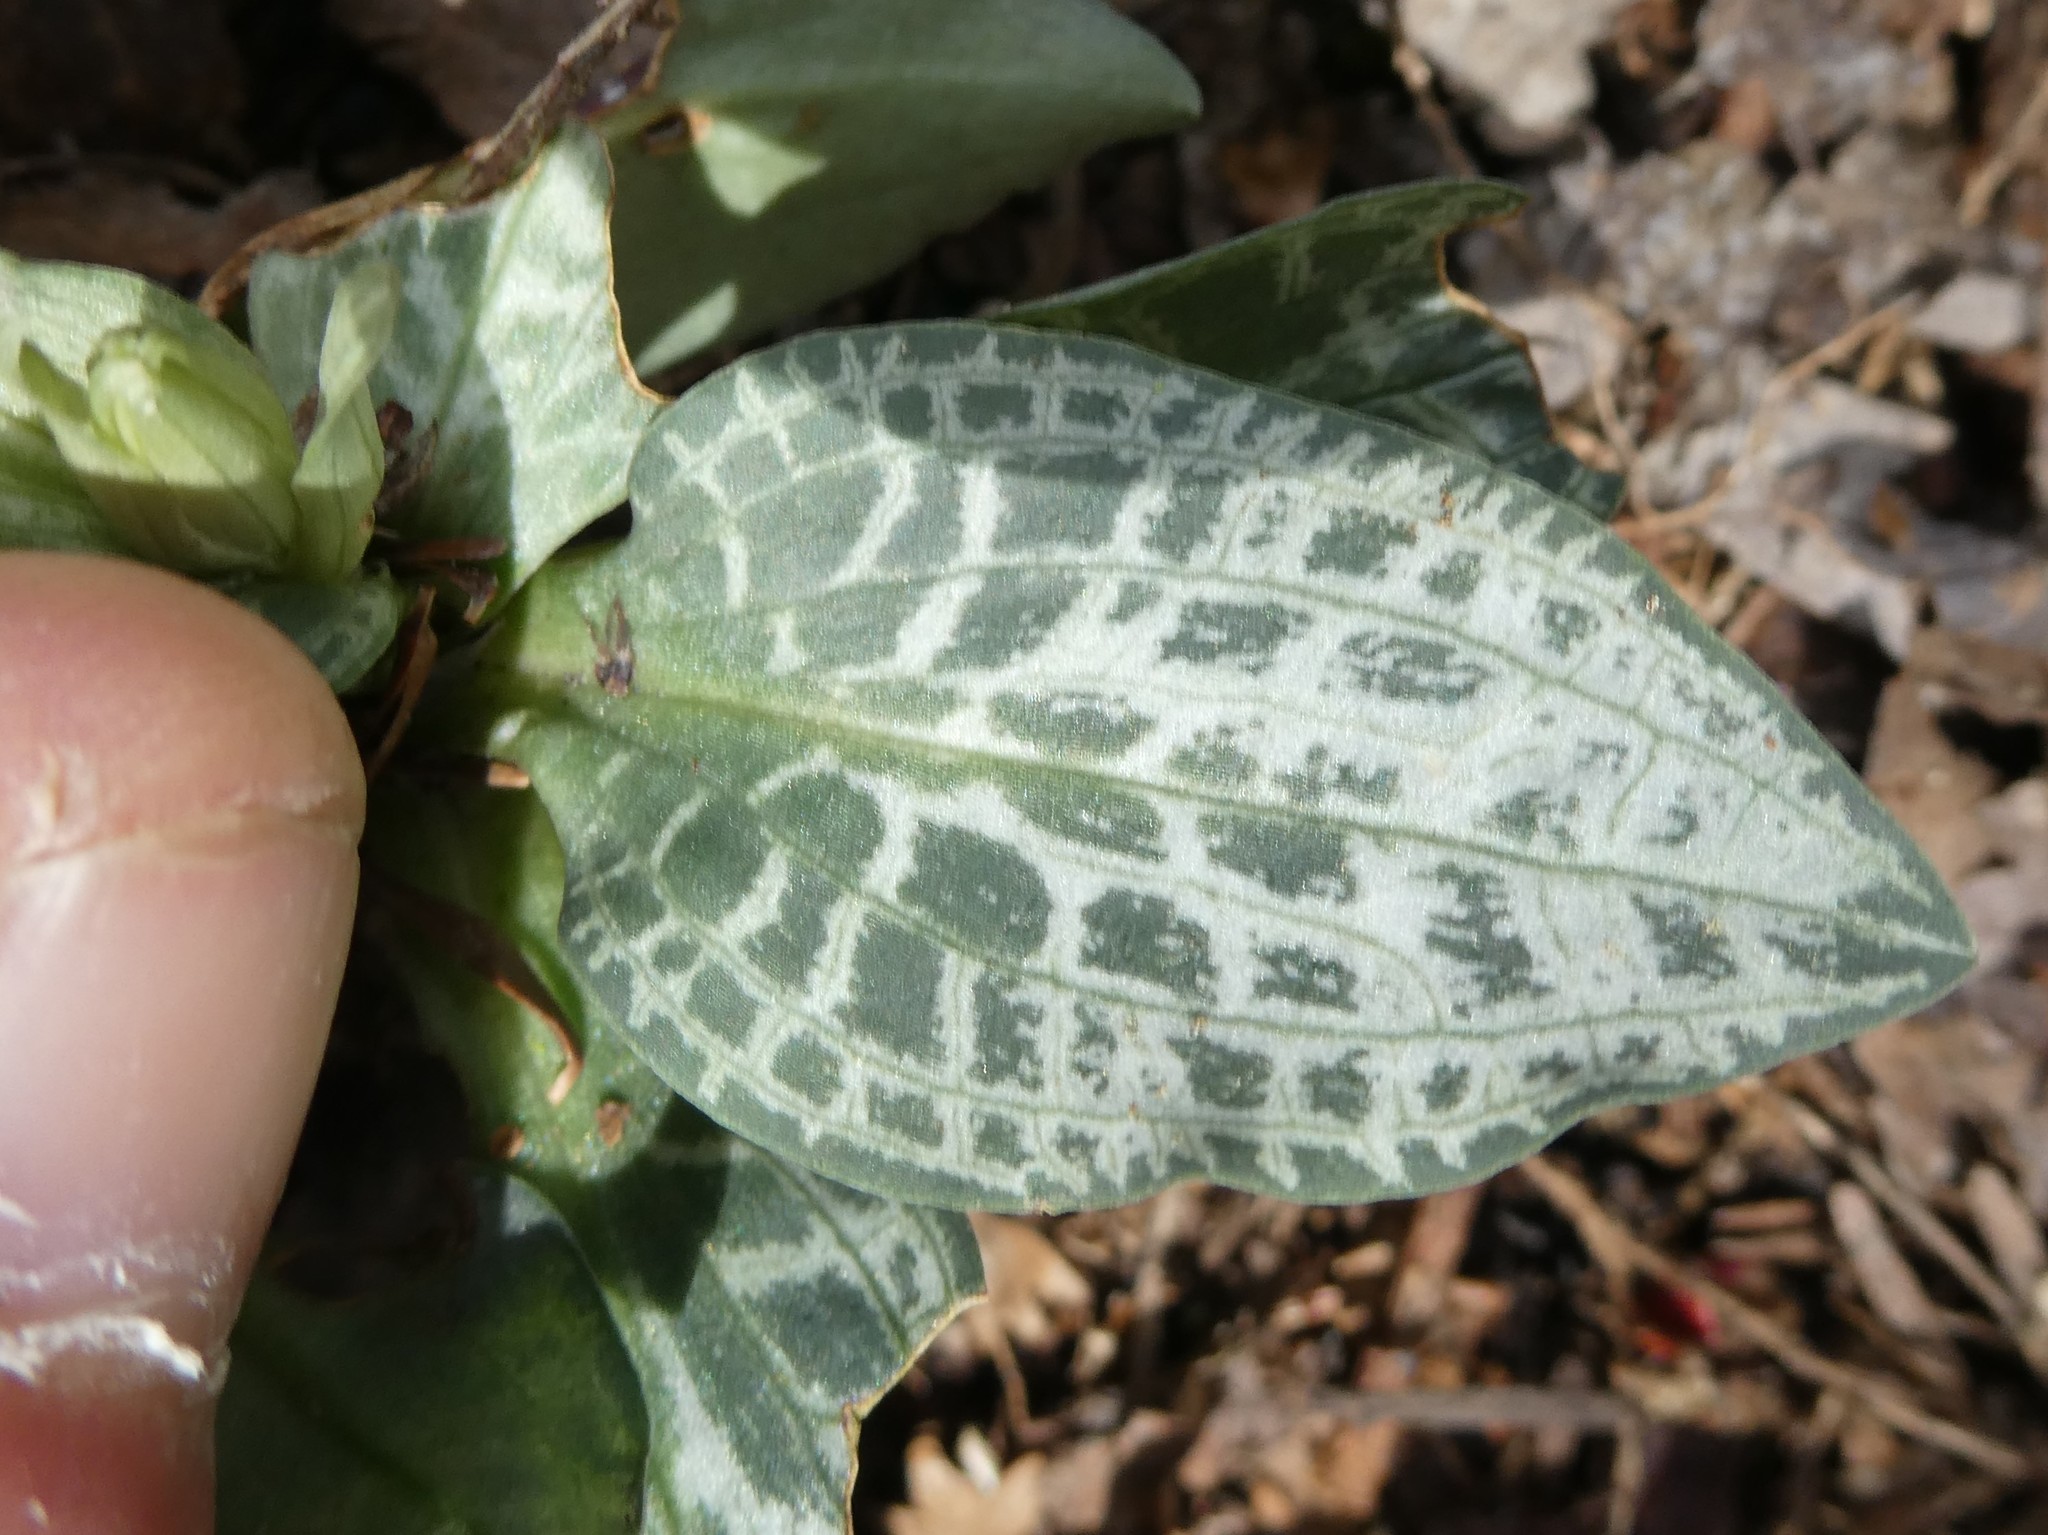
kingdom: Plantae
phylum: Tracheophyta
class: Liliopsida
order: Asparagales
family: Orchidaceae
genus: Goodyera
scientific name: Goodyera tesselata
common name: Checkered rattlesnake-plantain
